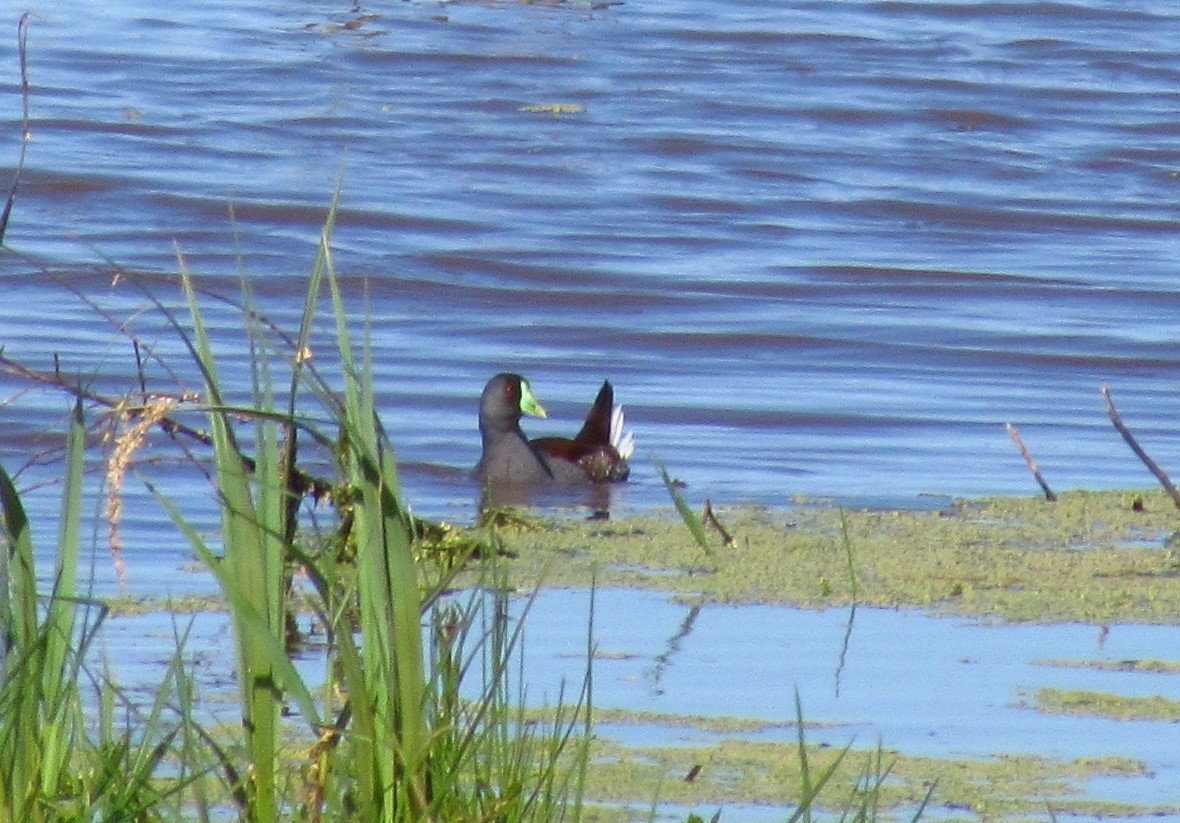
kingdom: Animalia
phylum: Chordata
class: Aves
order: Gruiformes
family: Rallidae
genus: Gallinula
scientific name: Gallinula melanops
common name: Spot-flanked gallinule
